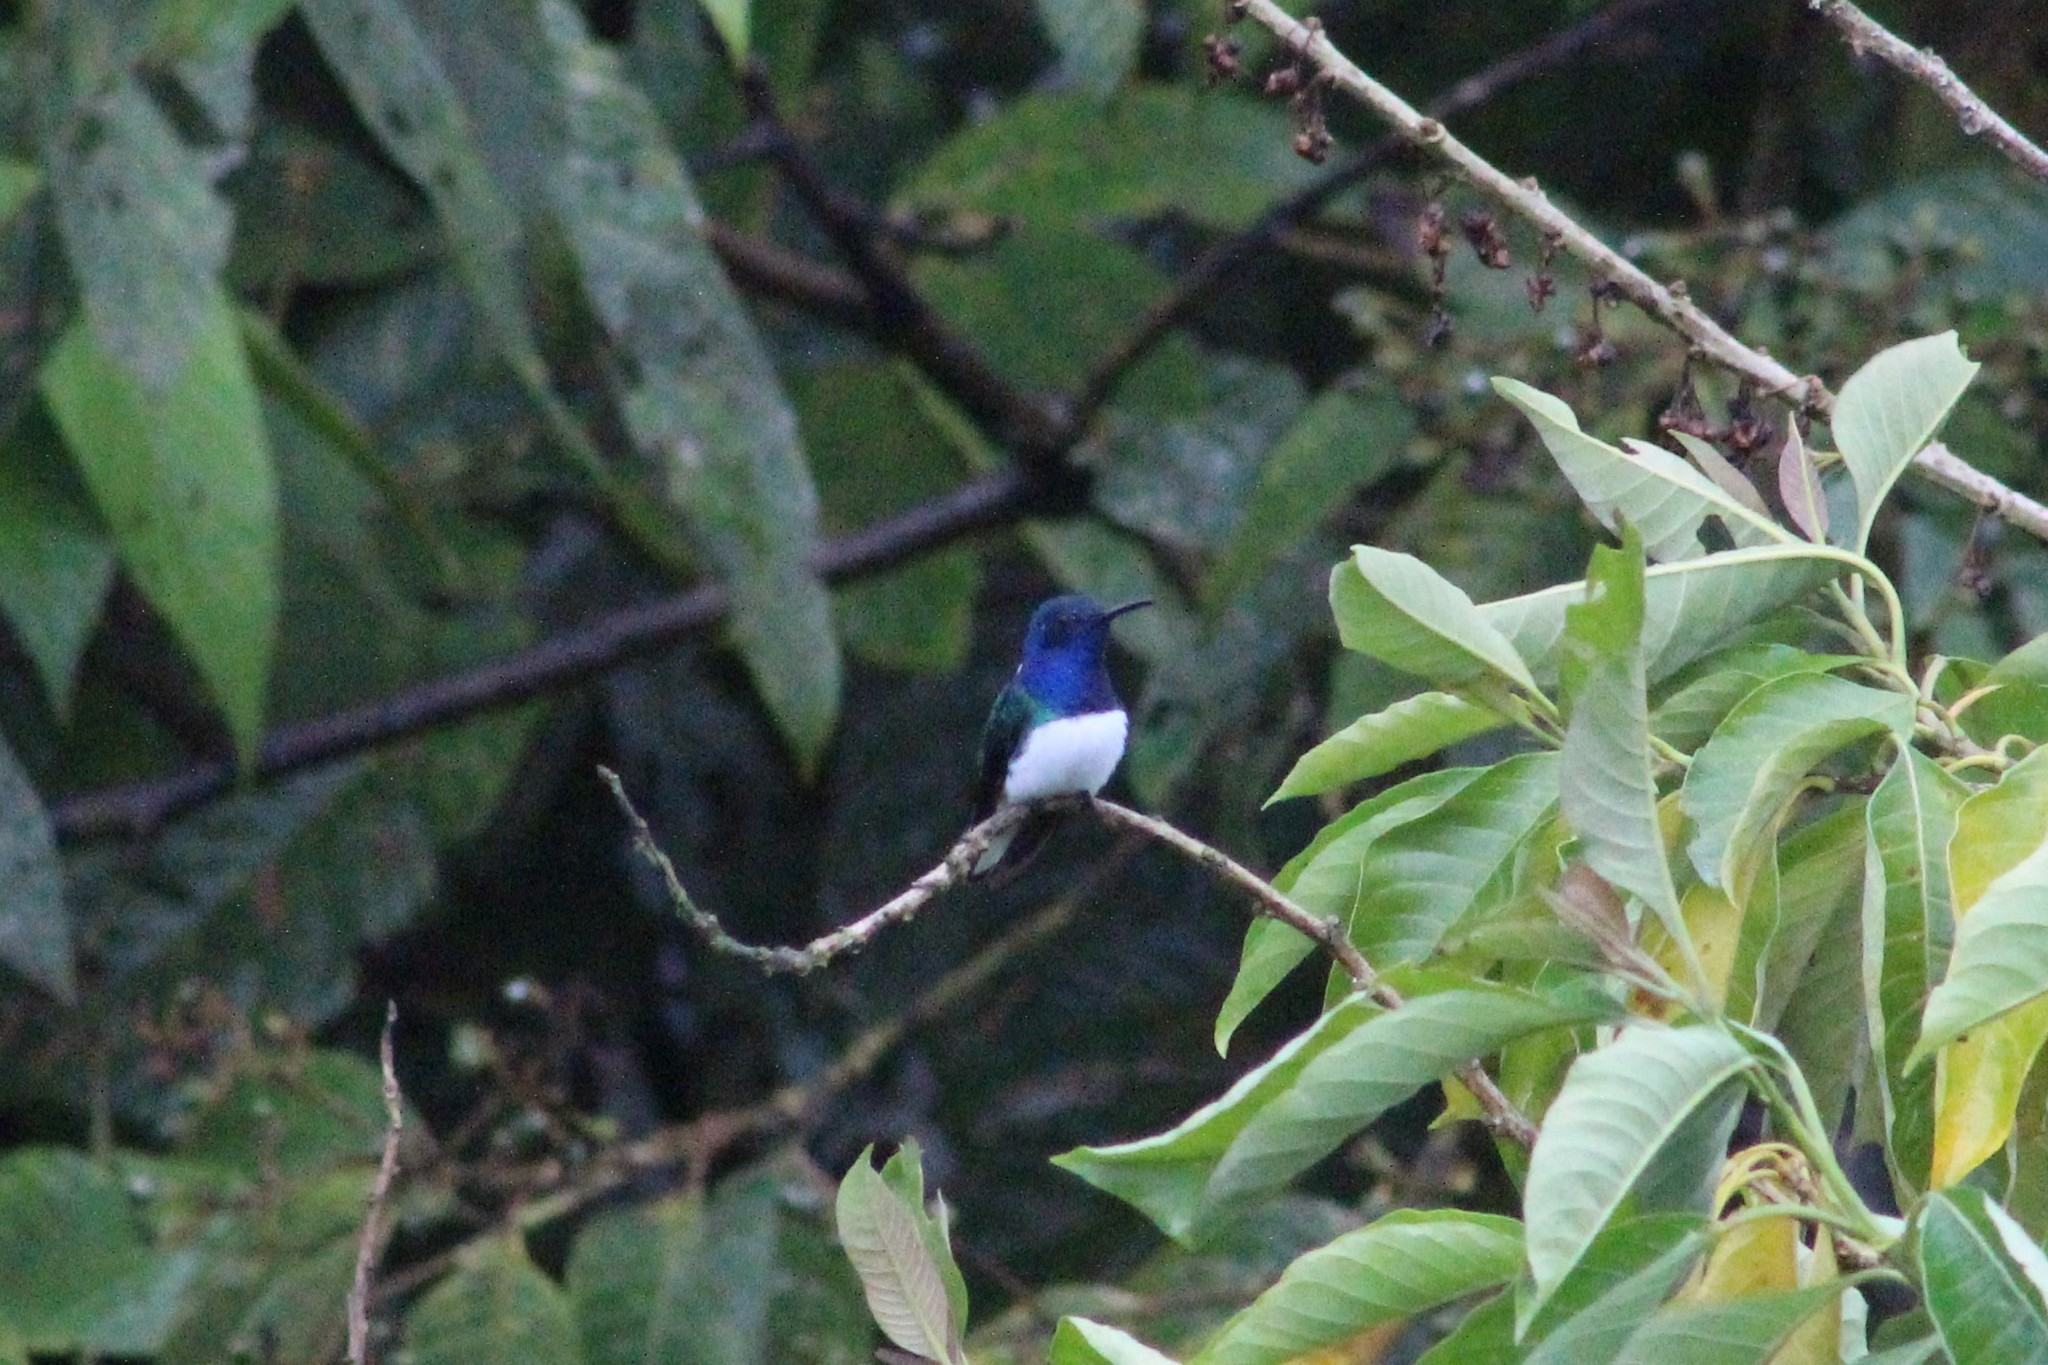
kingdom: Animalia
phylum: Chordata
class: Aves
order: Apodiformes
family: Trochilidae
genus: Florisuga
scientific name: Florisuga mellivora
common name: White-necked jacobin
